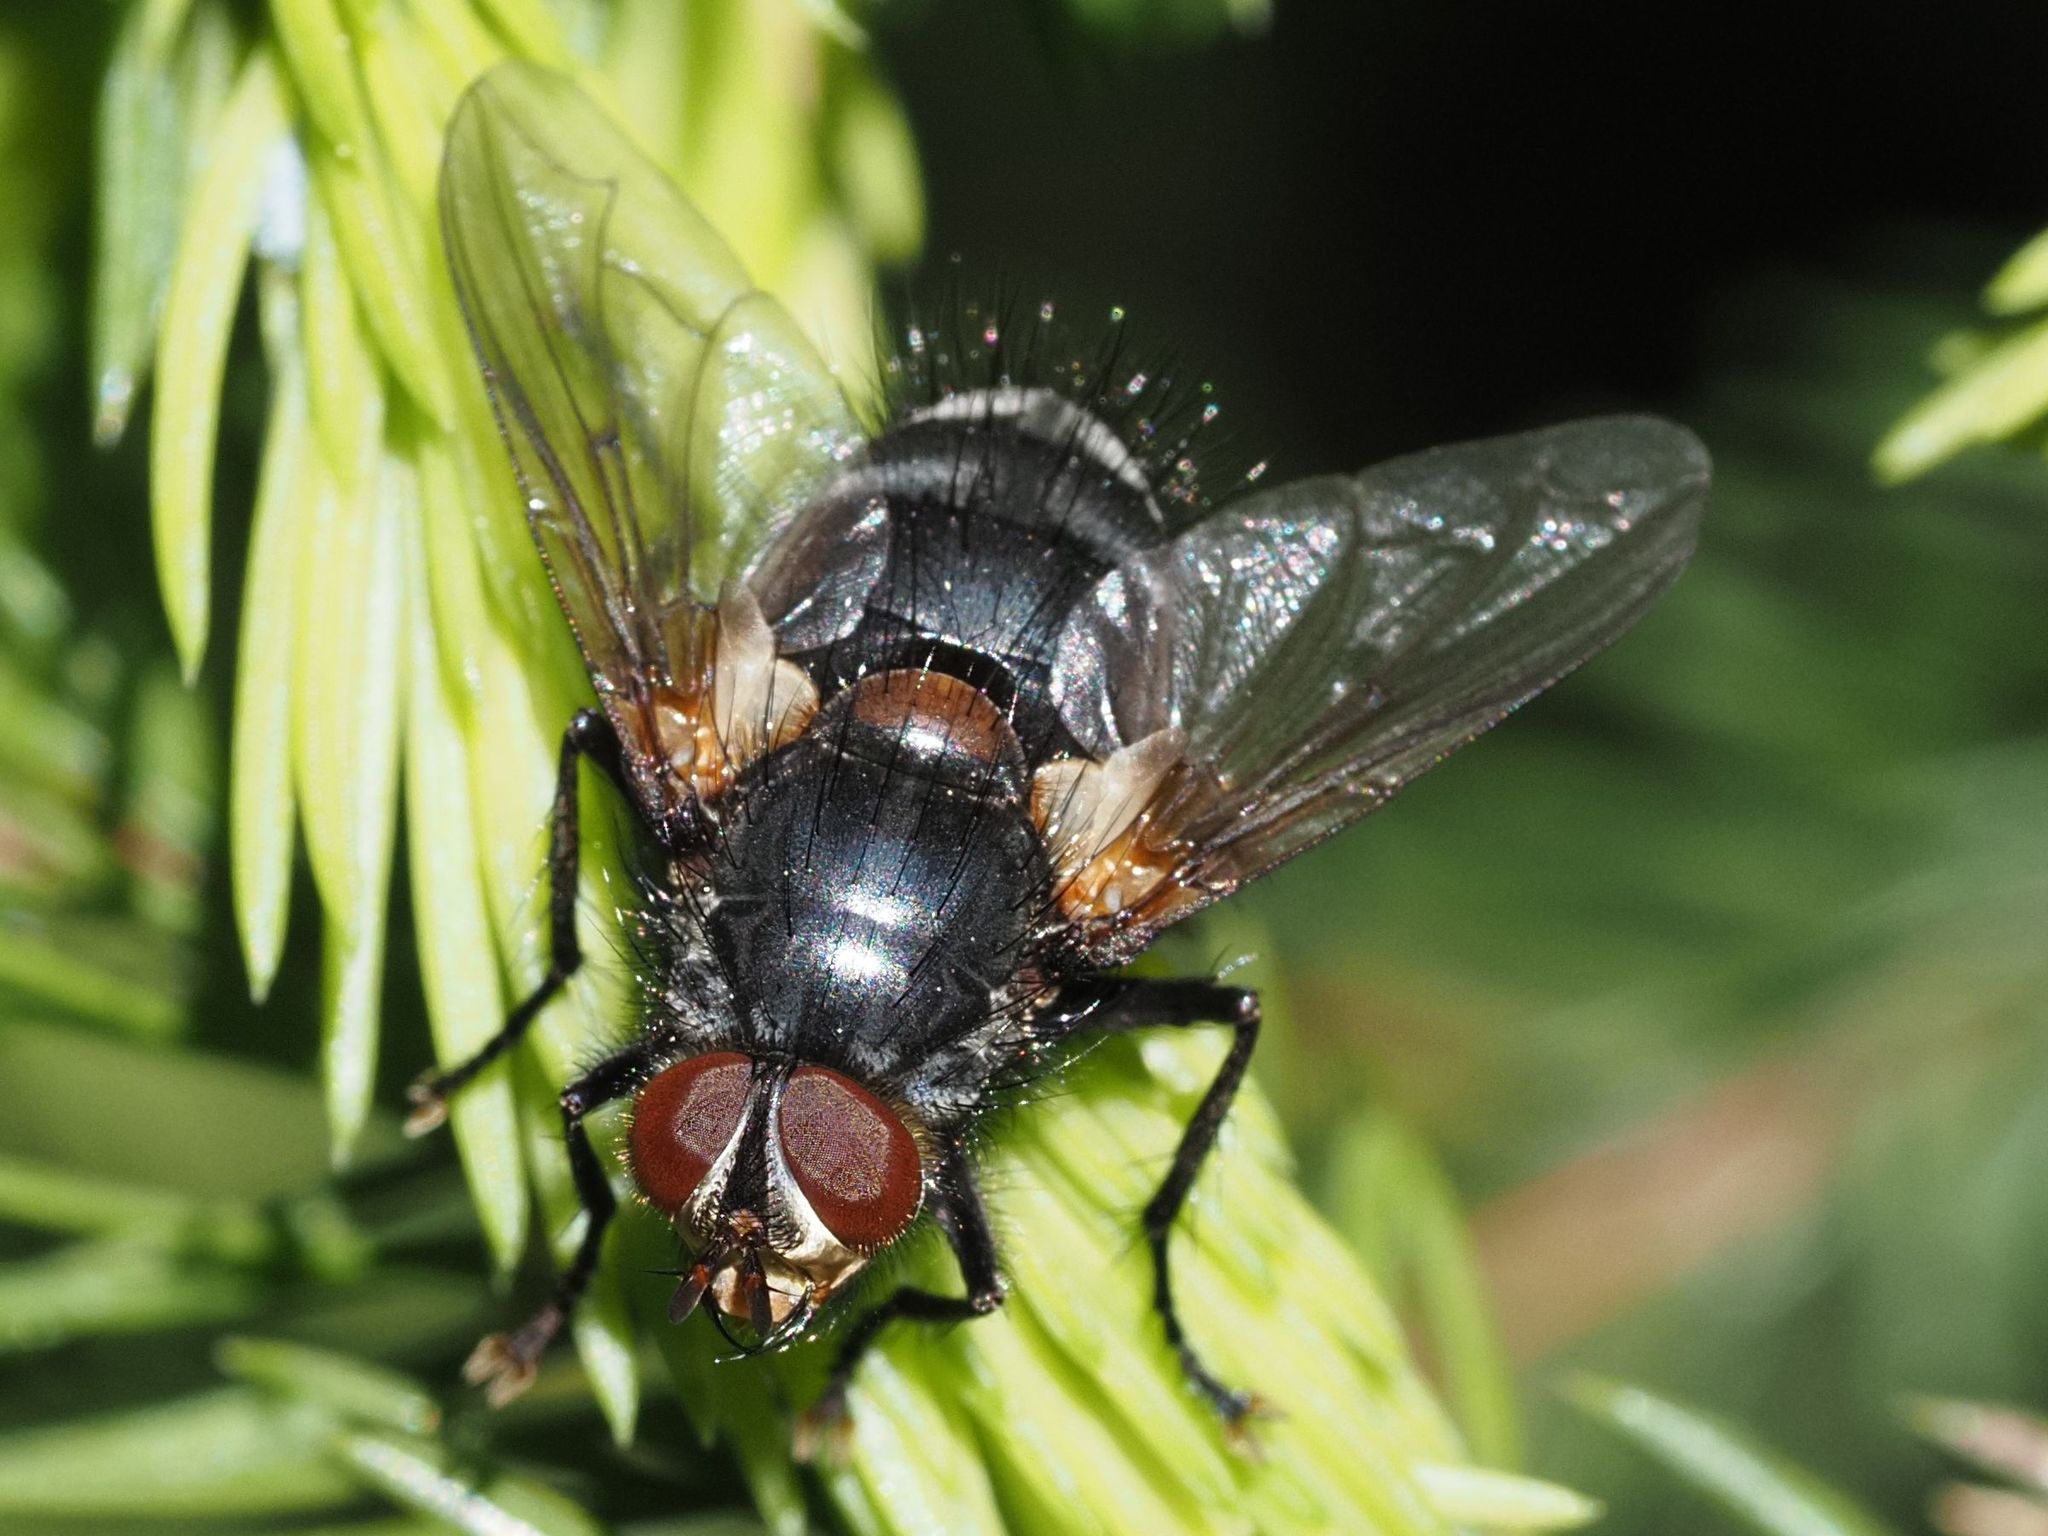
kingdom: Animalia
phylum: Arthropoda
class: Insecta
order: Diptera
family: Tachinidae
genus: Panzeria
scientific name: Panzeria rudis
